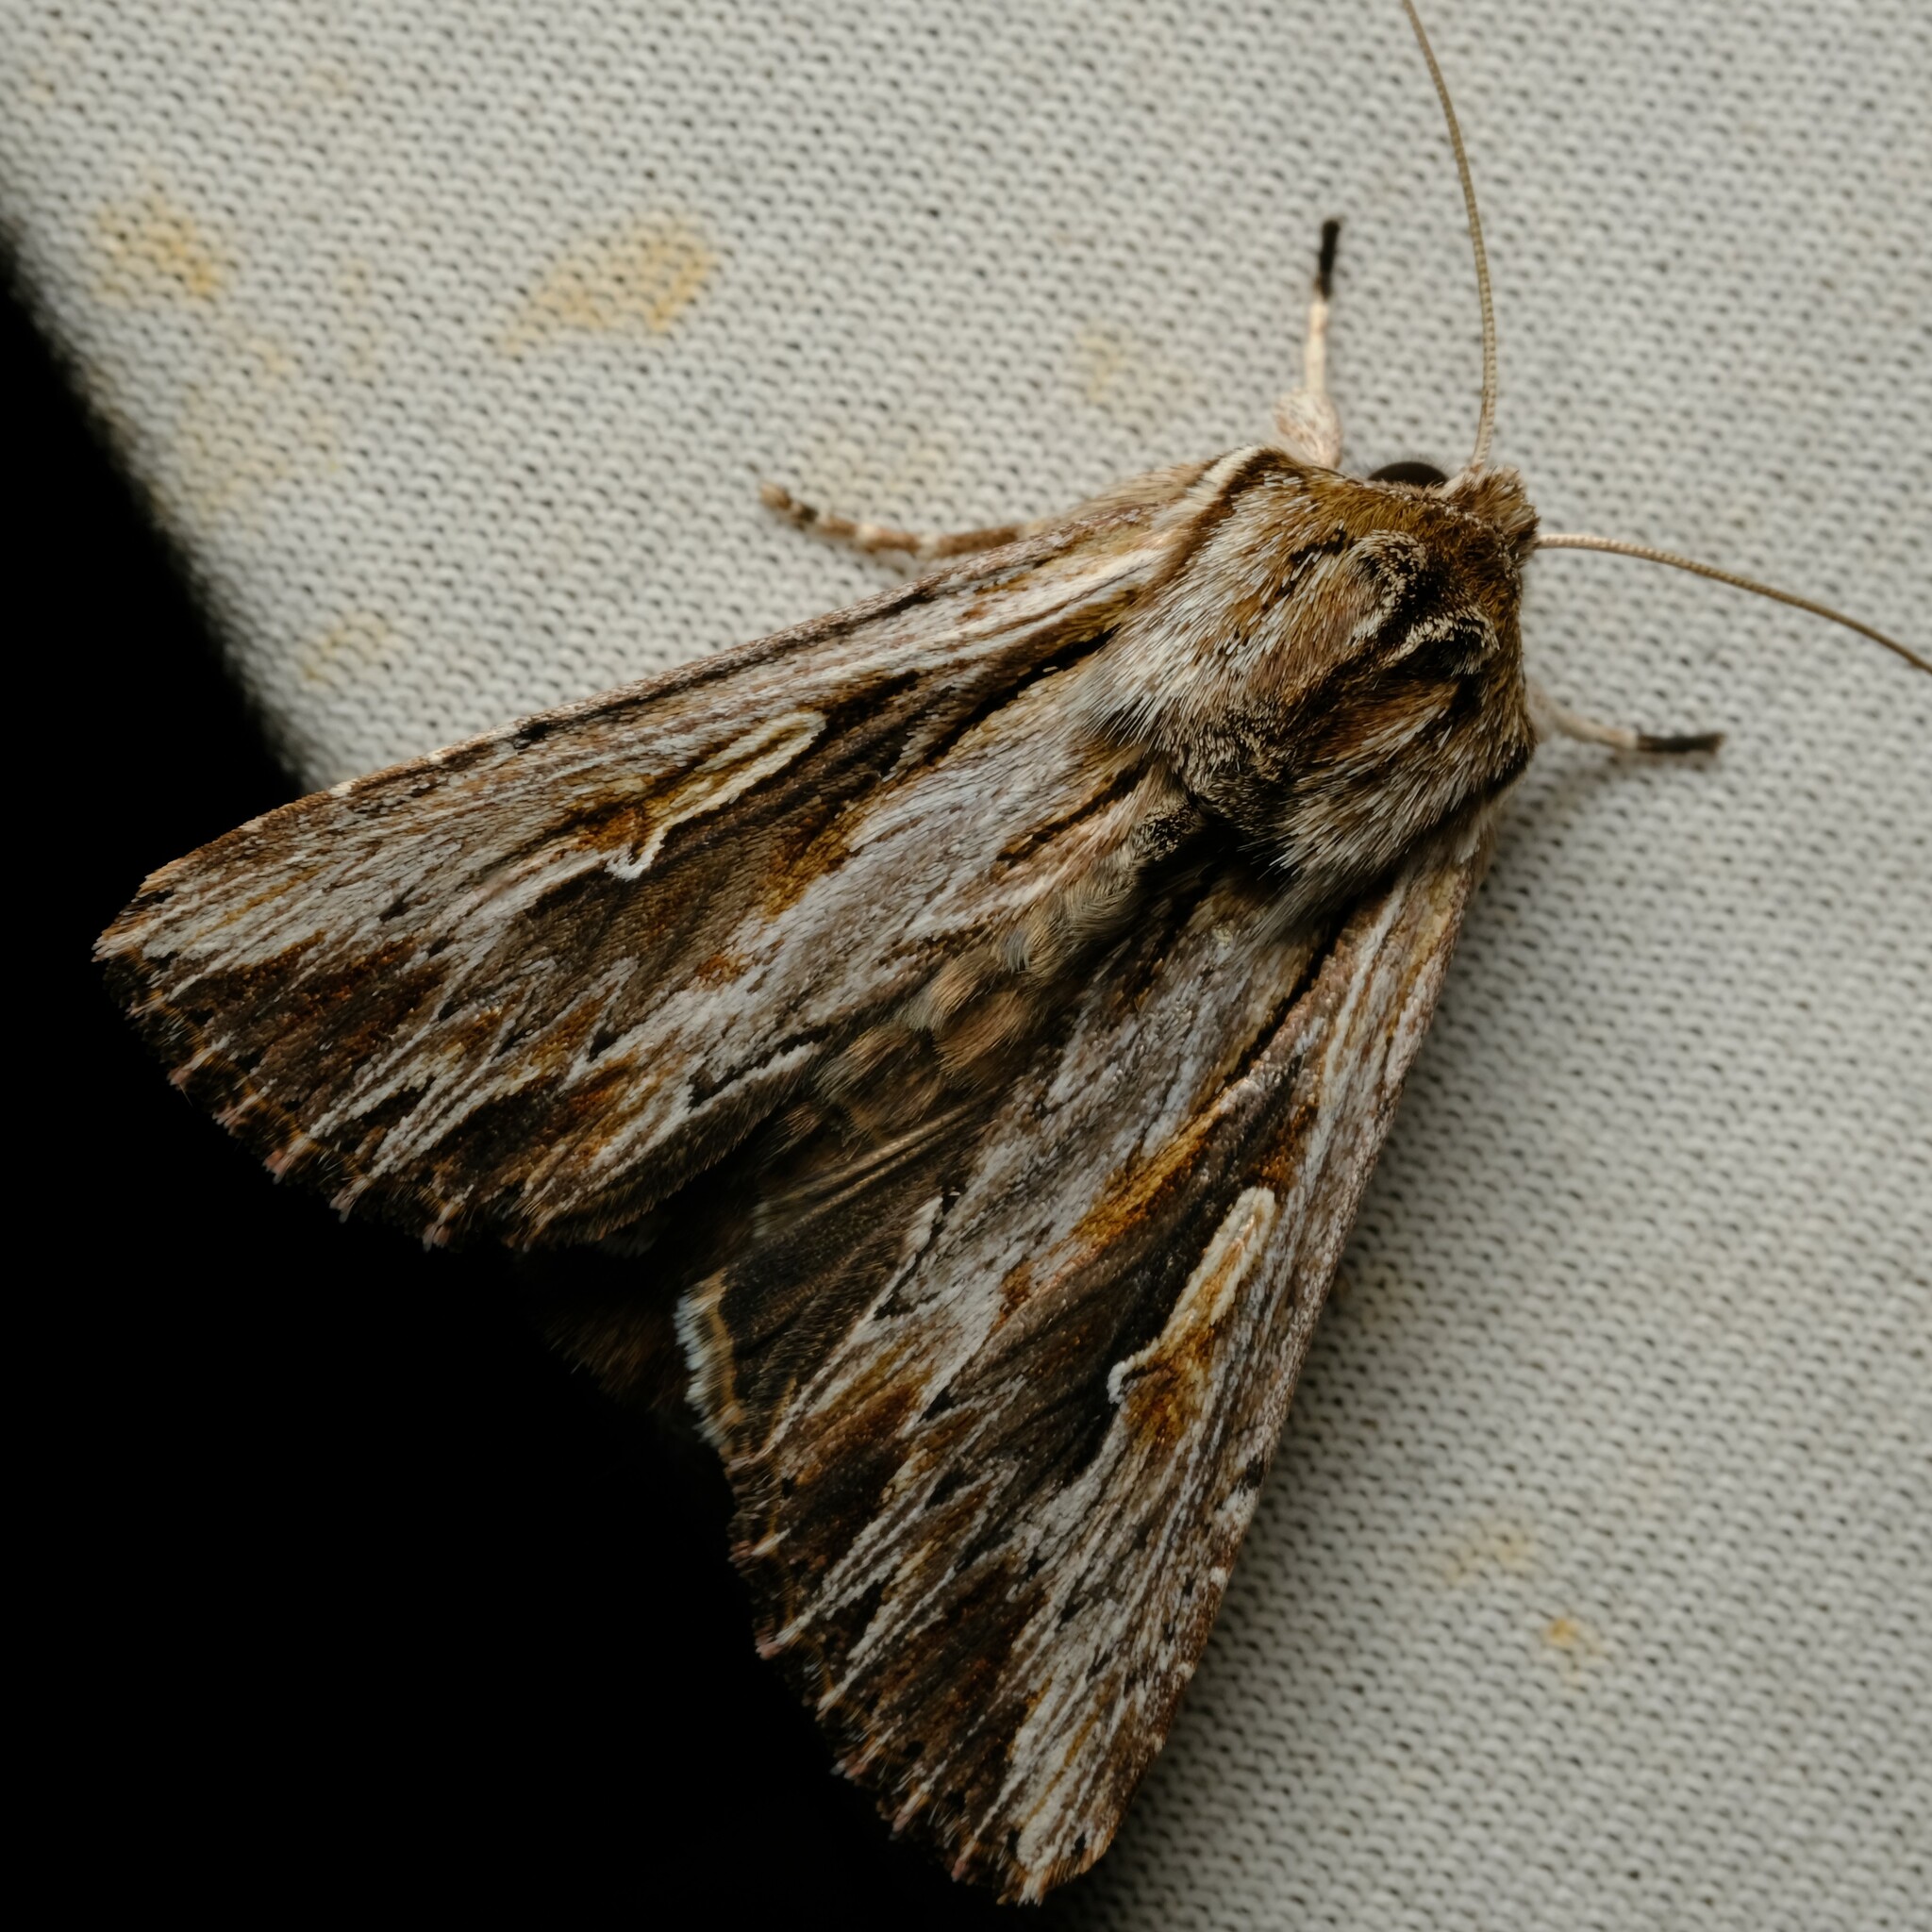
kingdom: Animalia
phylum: Arthropoda
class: Insecta
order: Lepidoptera
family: Noctuidae
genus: Persectania
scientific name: Persectania ewingii
